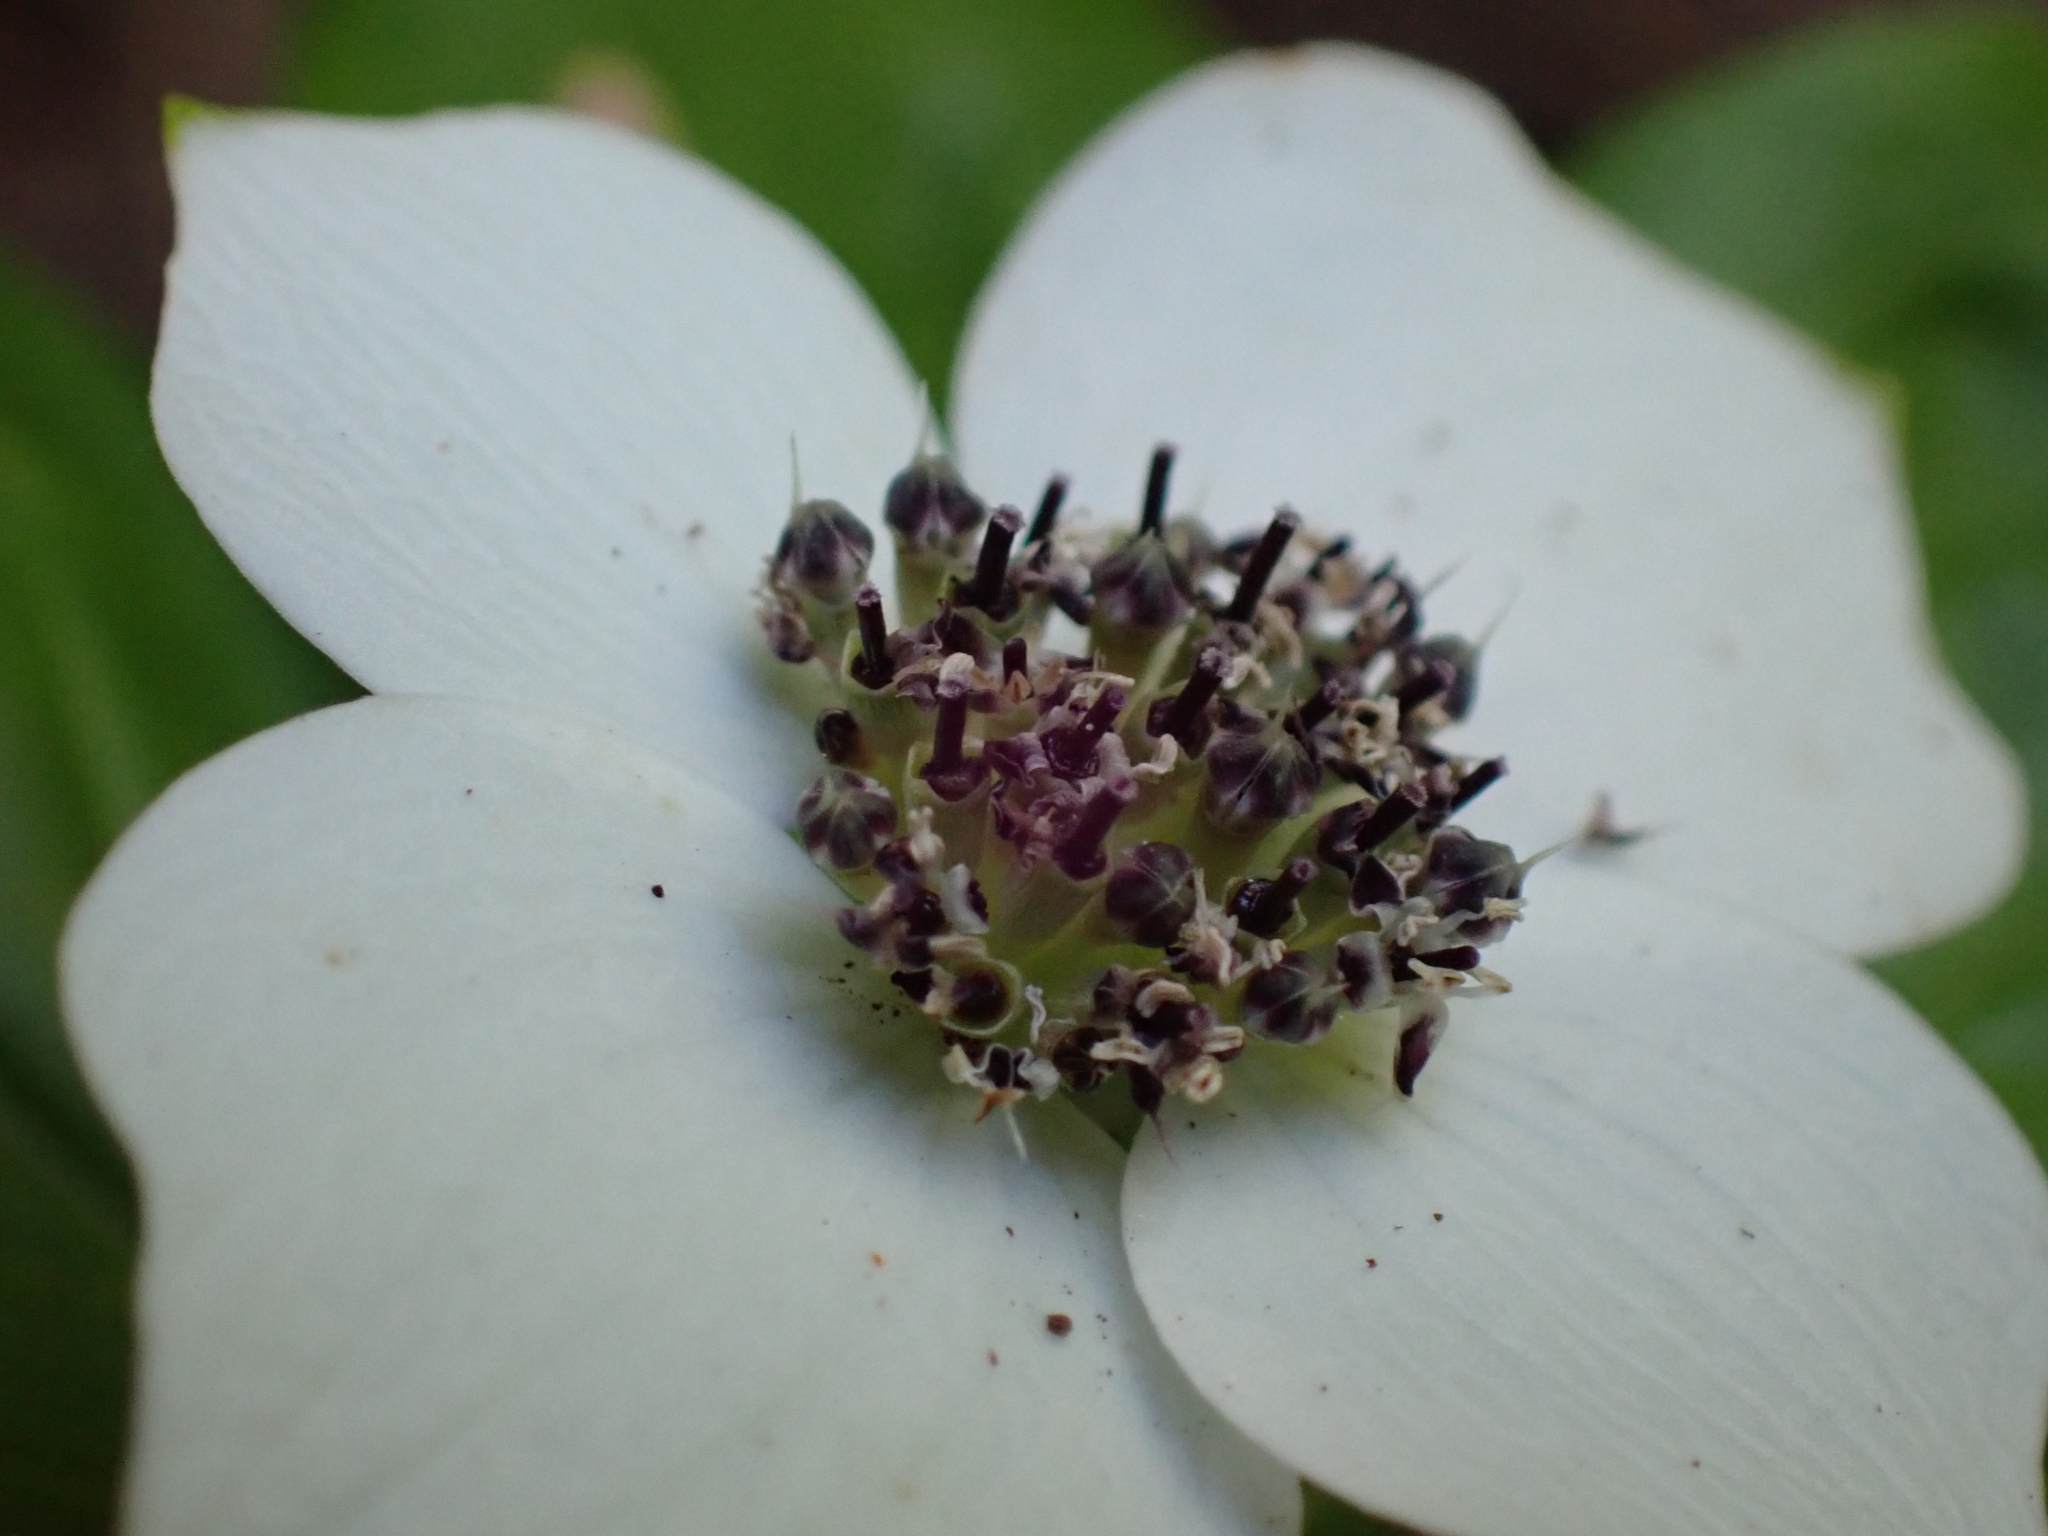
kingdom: Plantae
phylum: Tracheophyta
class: Magnoliopsida
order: Cornales
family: Cornaceae
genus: Cornus
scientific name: Cornus unalaschkensis
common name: Alaska bunchberry
